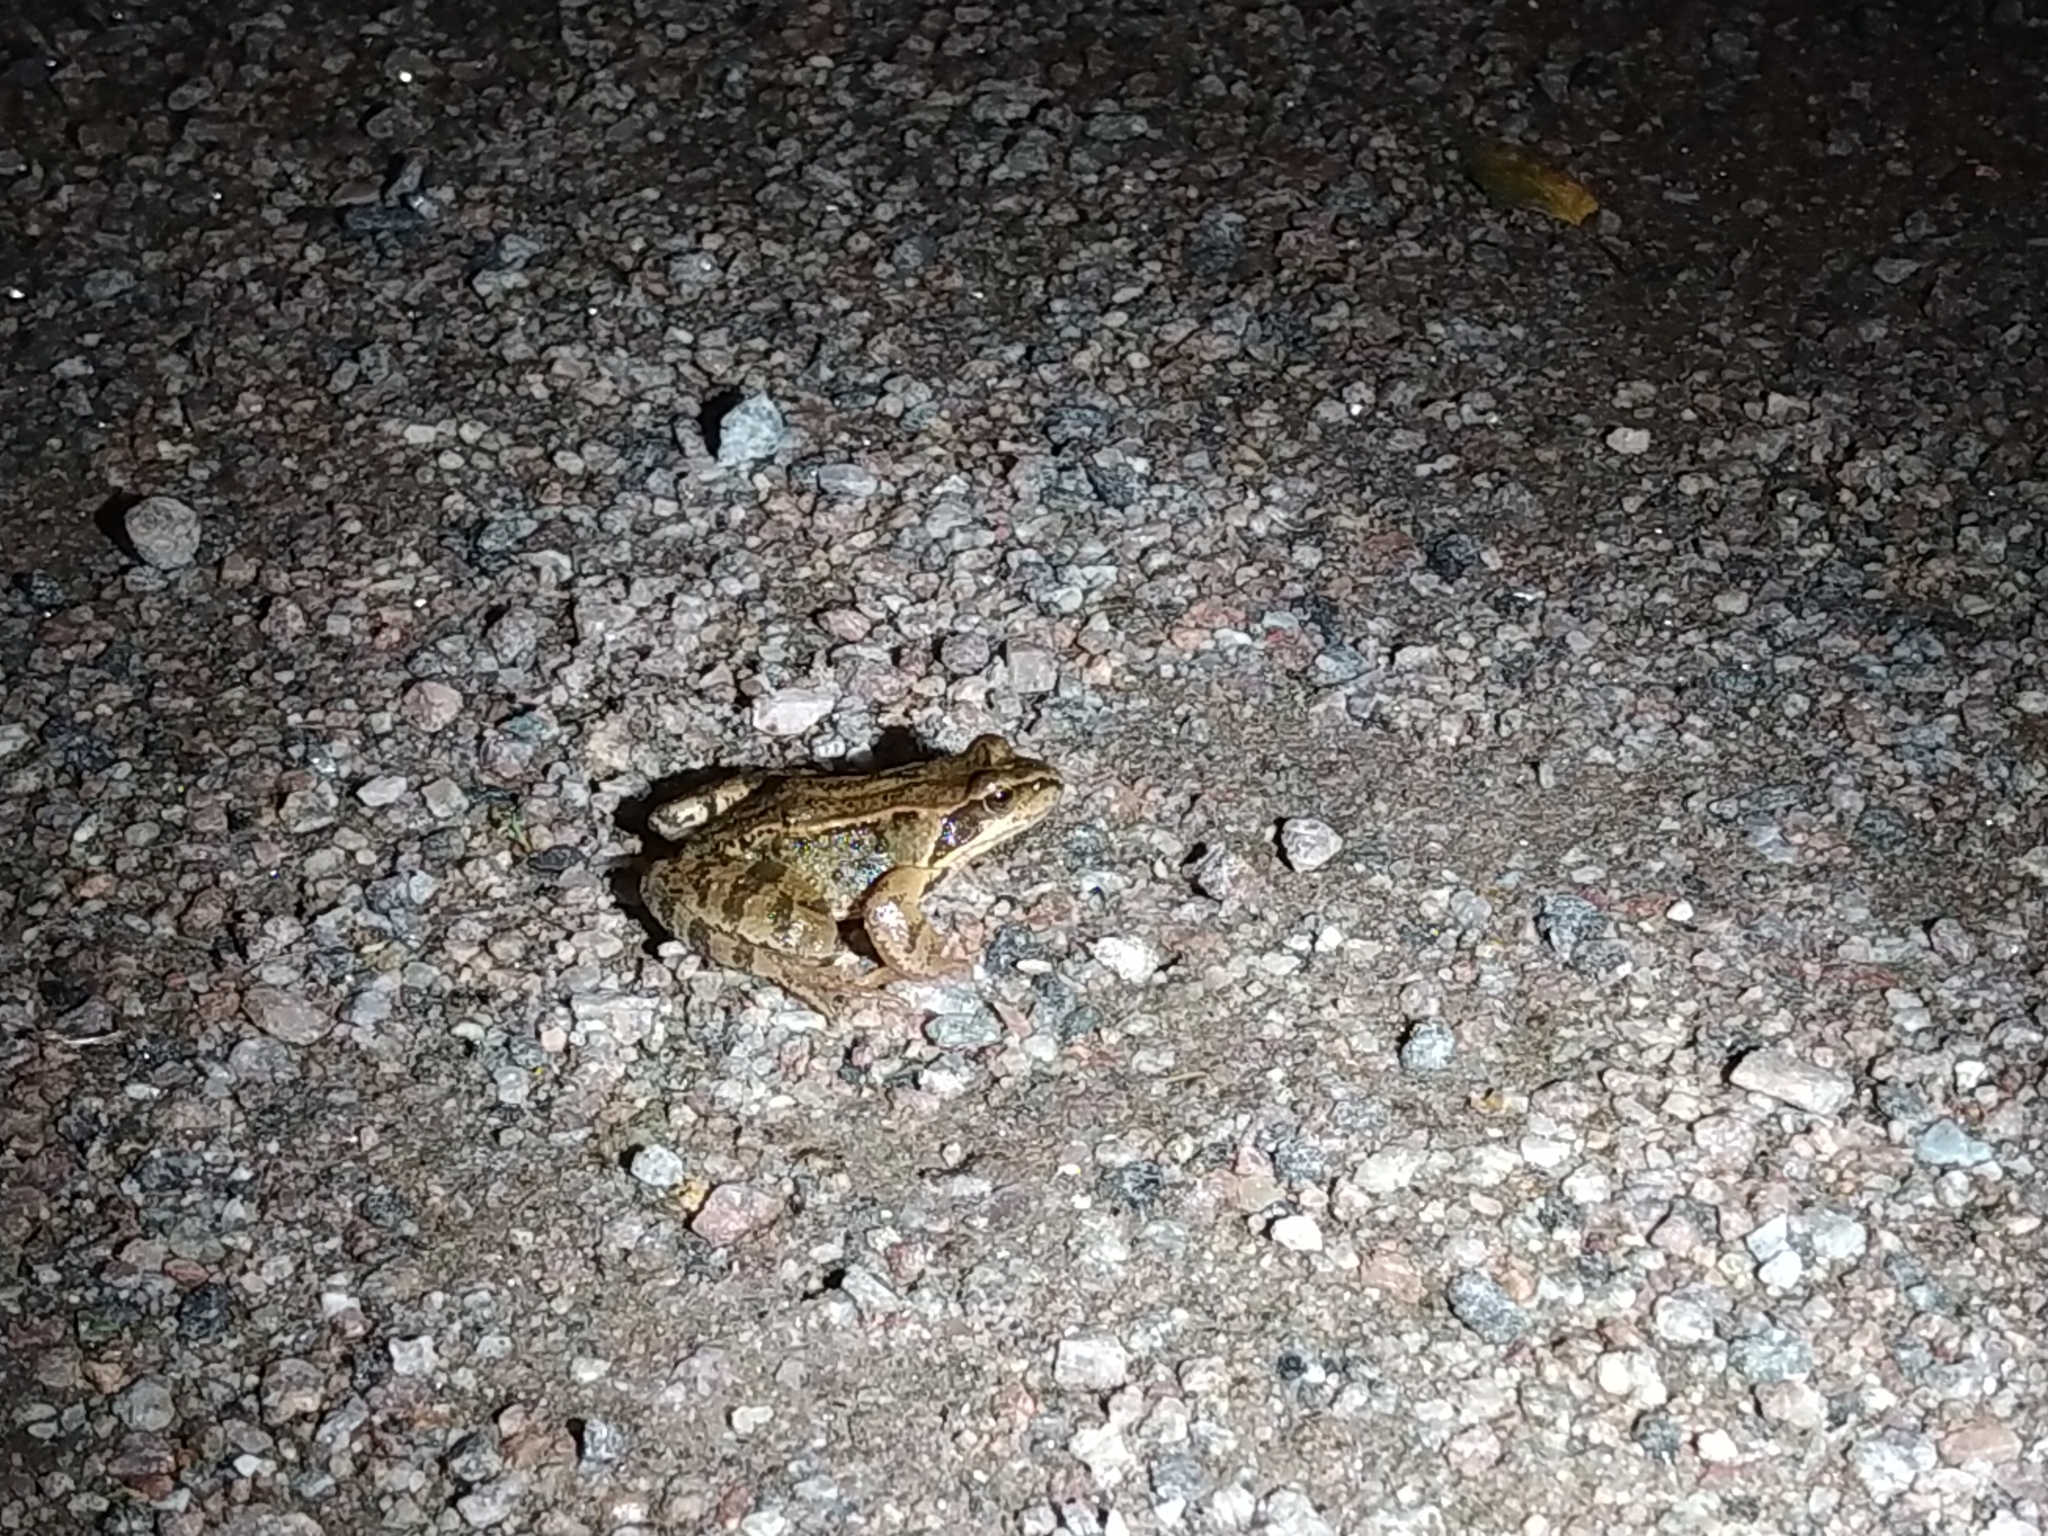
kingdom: Animalia
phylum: Chordata
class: Amphibia
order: Anura
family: Ranidae
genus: Rana
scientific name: Rana temporaria
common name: Common frog
